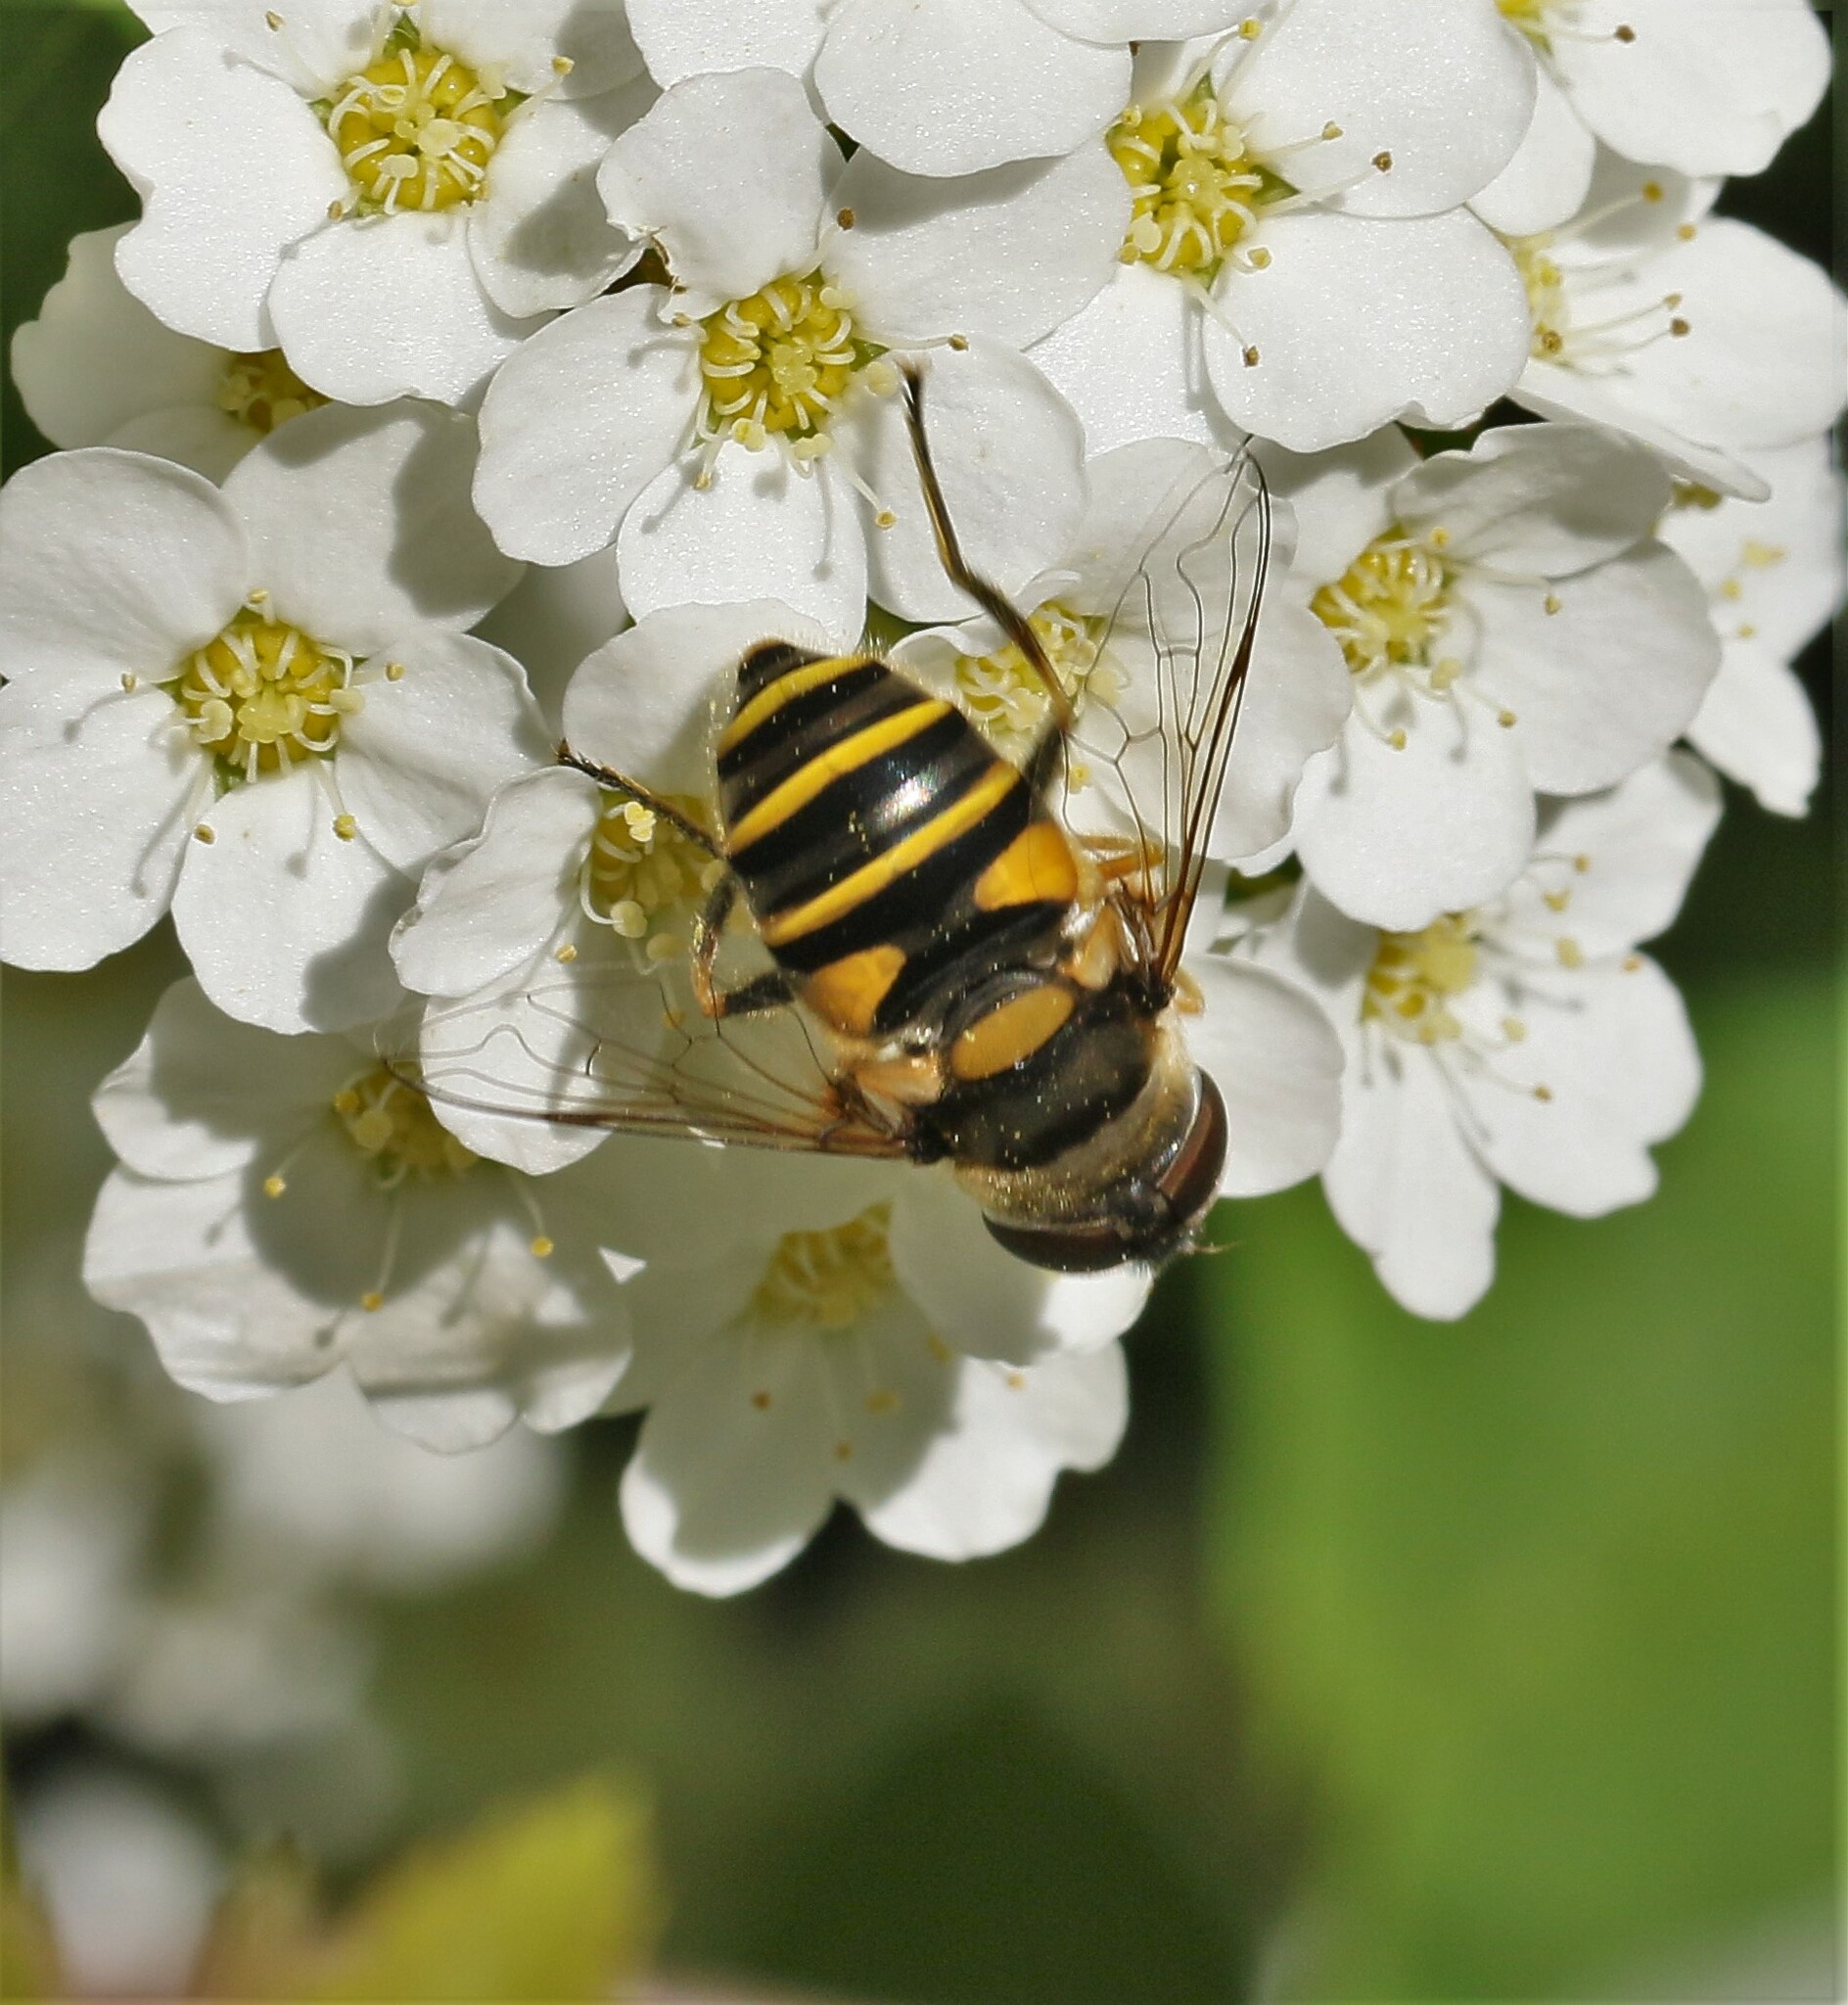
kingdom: Animalia
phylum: Arthropoda
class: Insecta
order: Diptera
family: Syrphidae
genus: Eristalis
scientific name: Eristalis transversa
